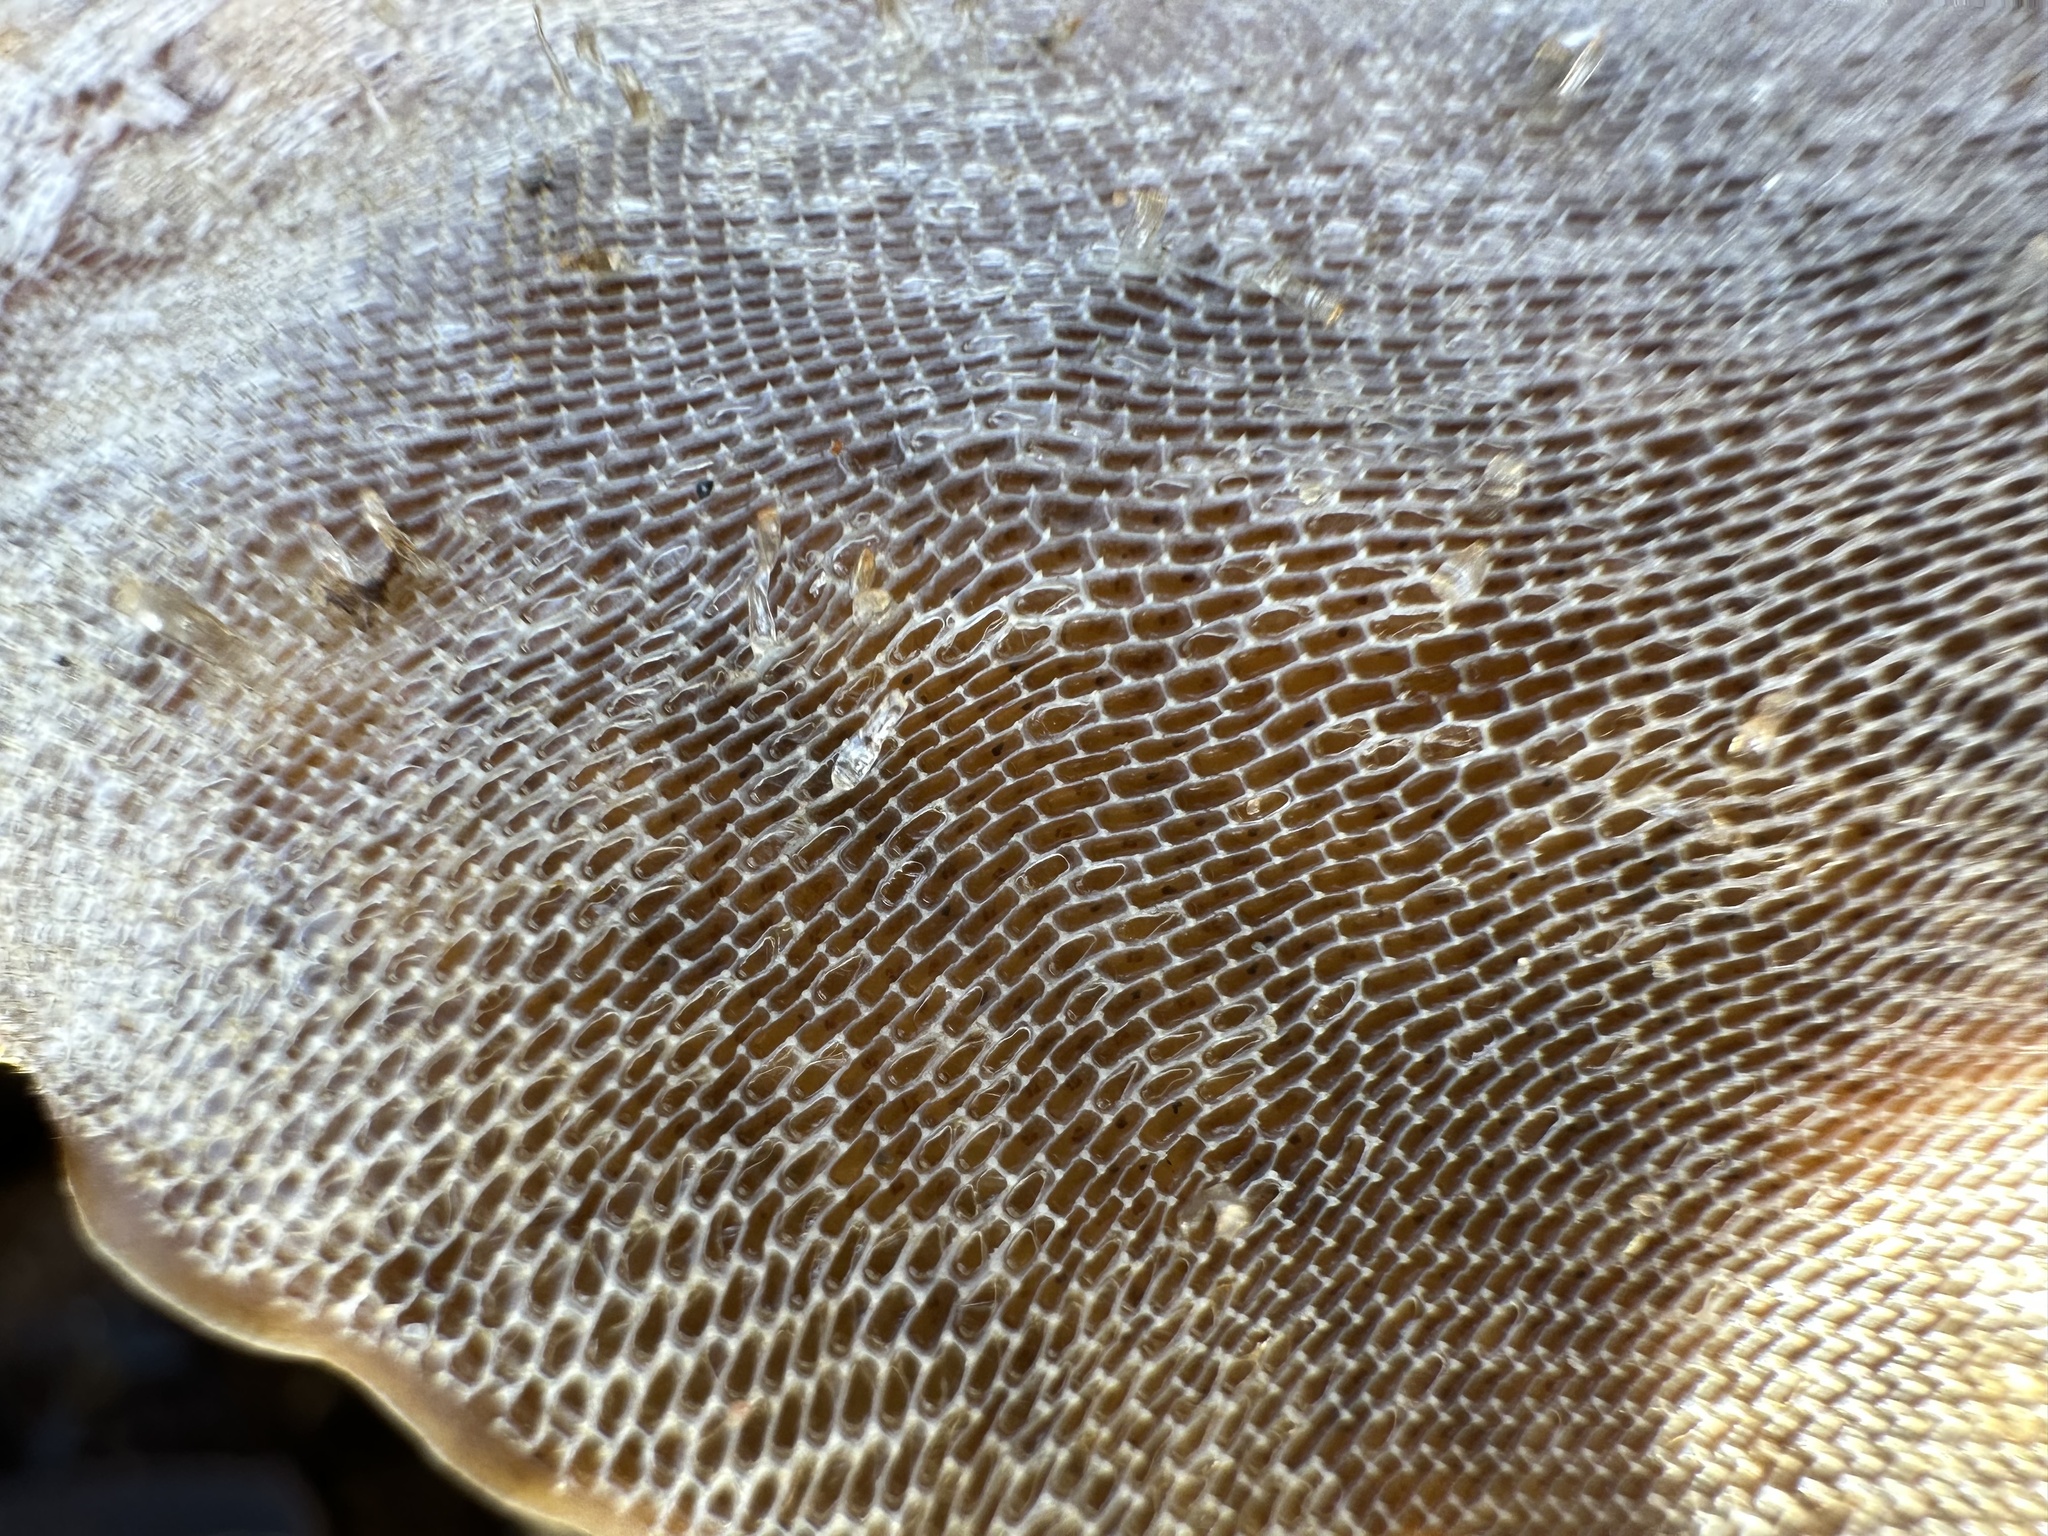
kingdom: Animalia
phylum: Bryozoa
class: Gymnolaemata
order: Cheilostomatida
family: Membraniporidae
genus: Membranipora
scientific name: Membranipora membranacea
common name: Sea mat
